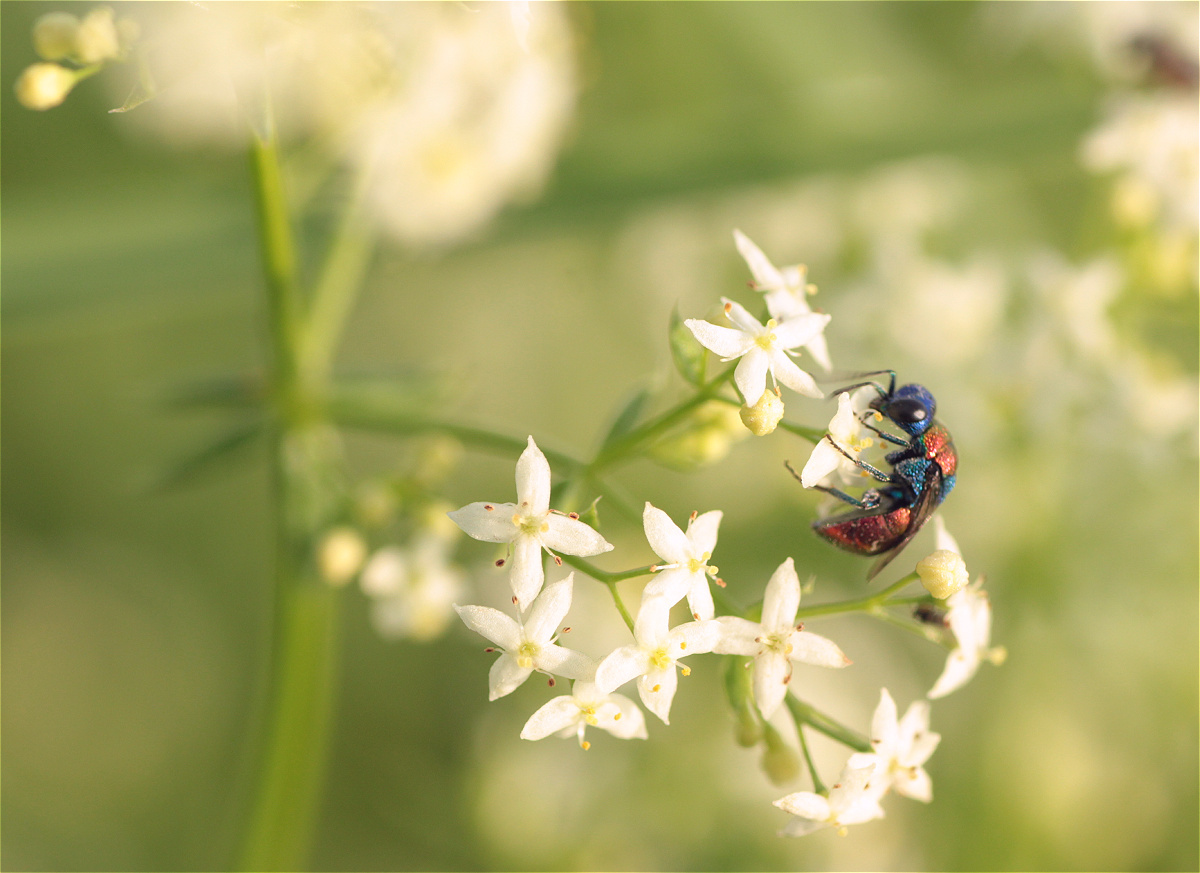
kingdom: Plantae
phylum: Tracheophyta
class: Magnoliopsida
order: Gentianales
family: Rubiaceae
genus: Galium
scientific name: Galium album
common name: White bedstraw
